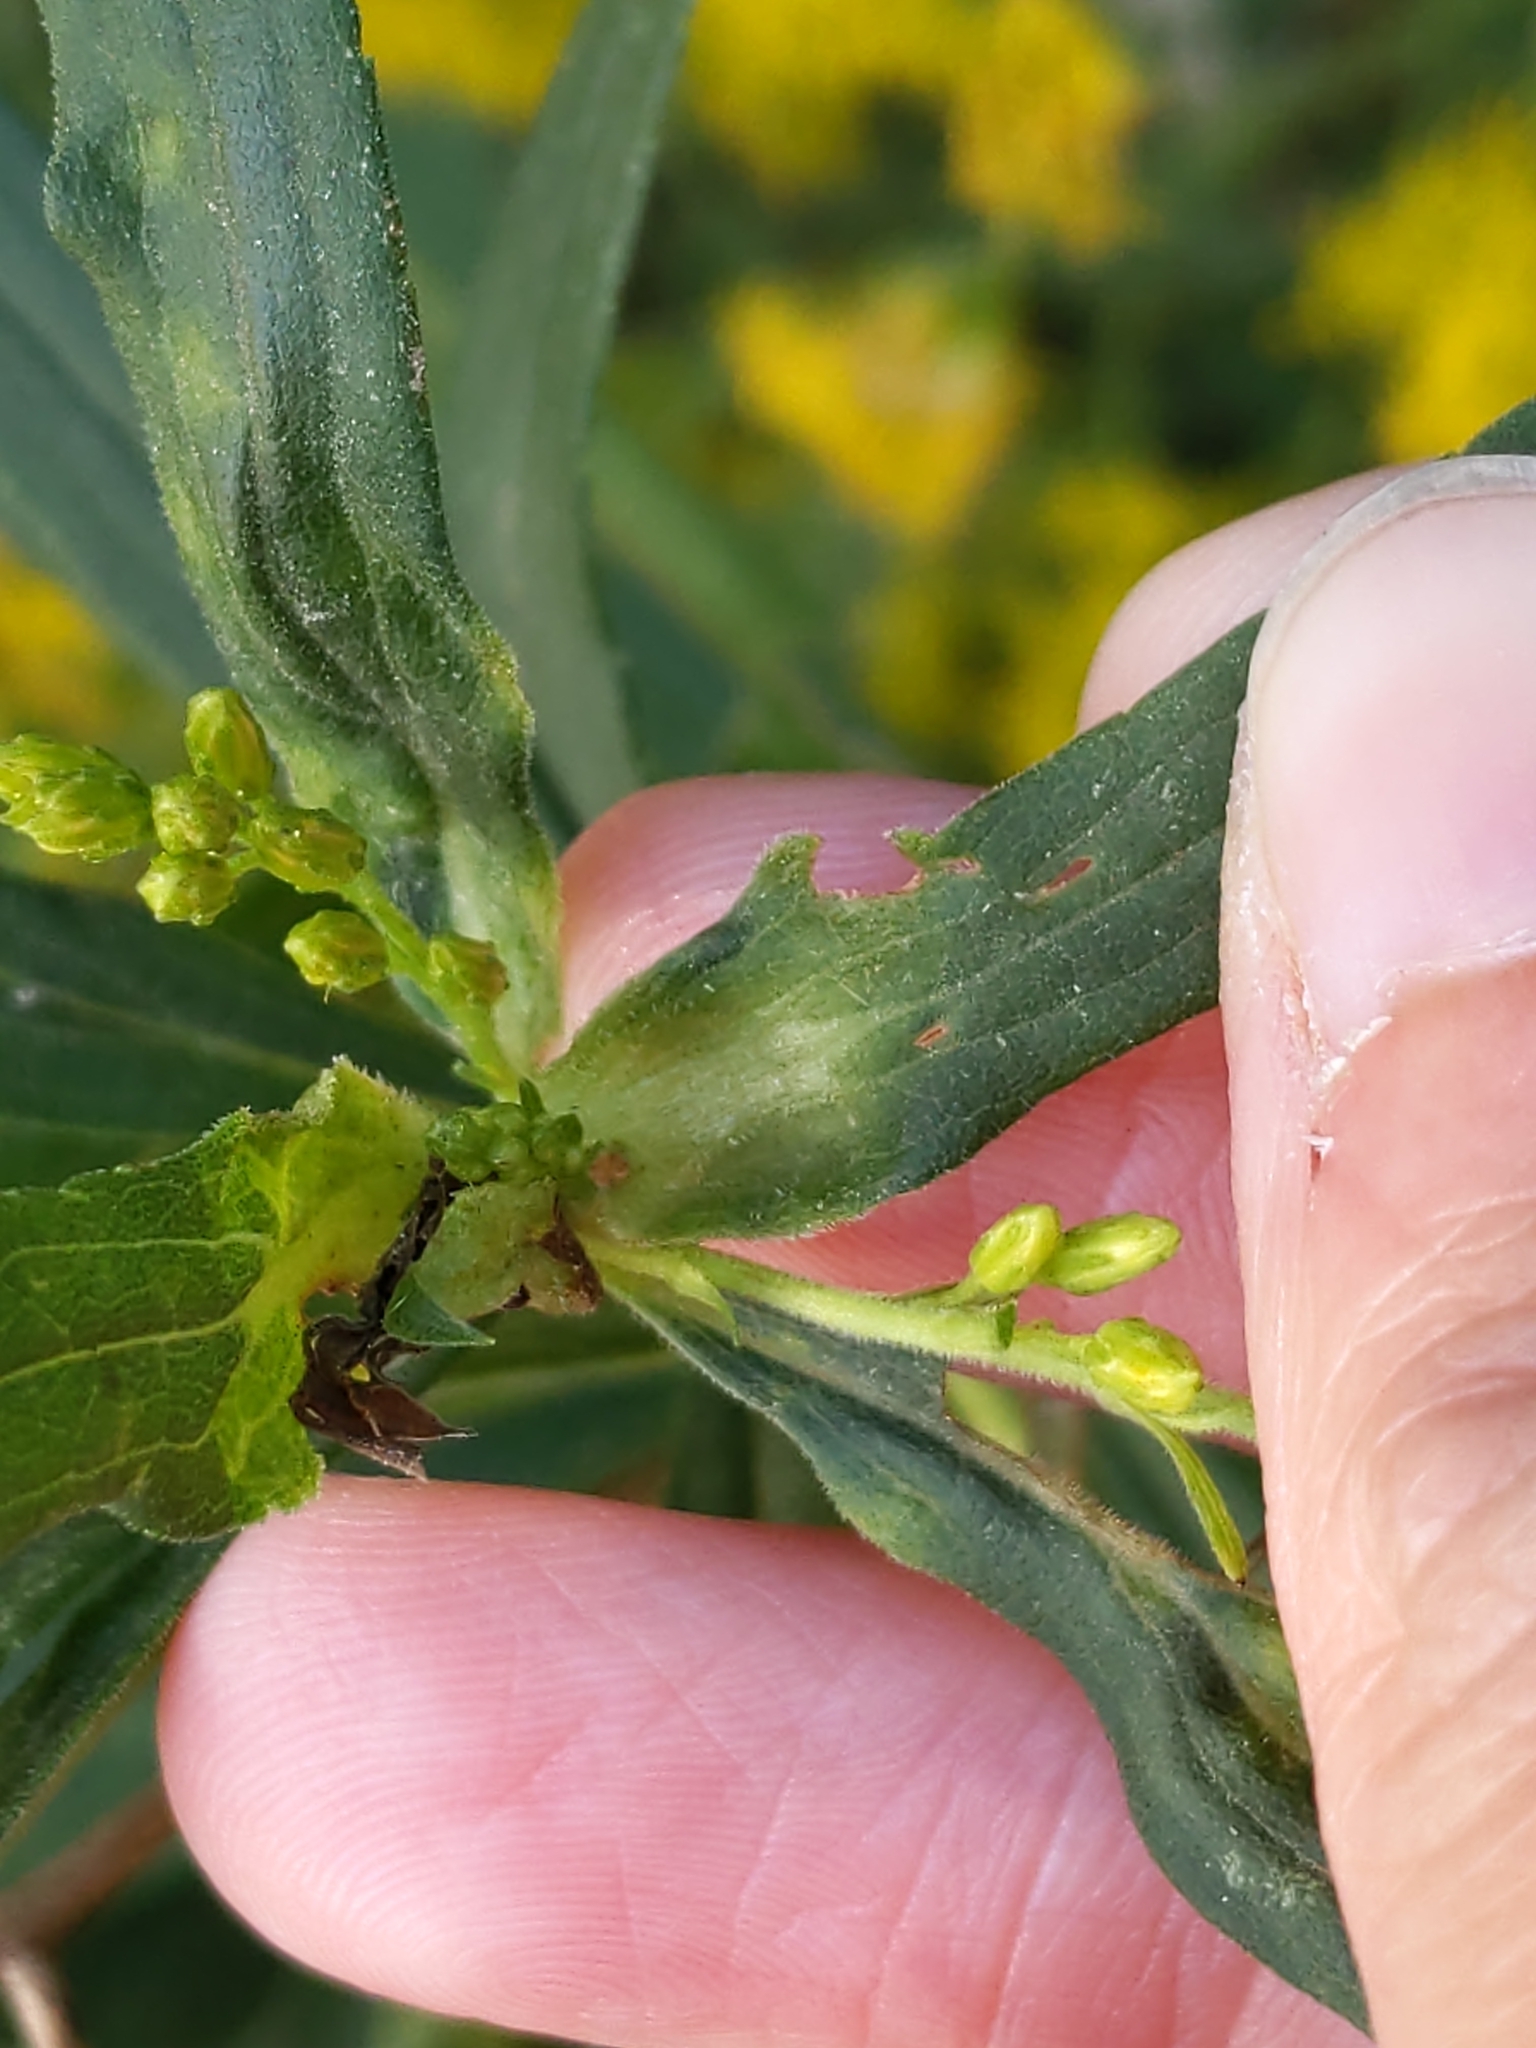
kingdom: Animalia
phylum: Arthropoda
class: Insecta
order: Diptera
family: Cecidomyiidae
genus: Dasineura
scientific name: Dasineura folliculi
